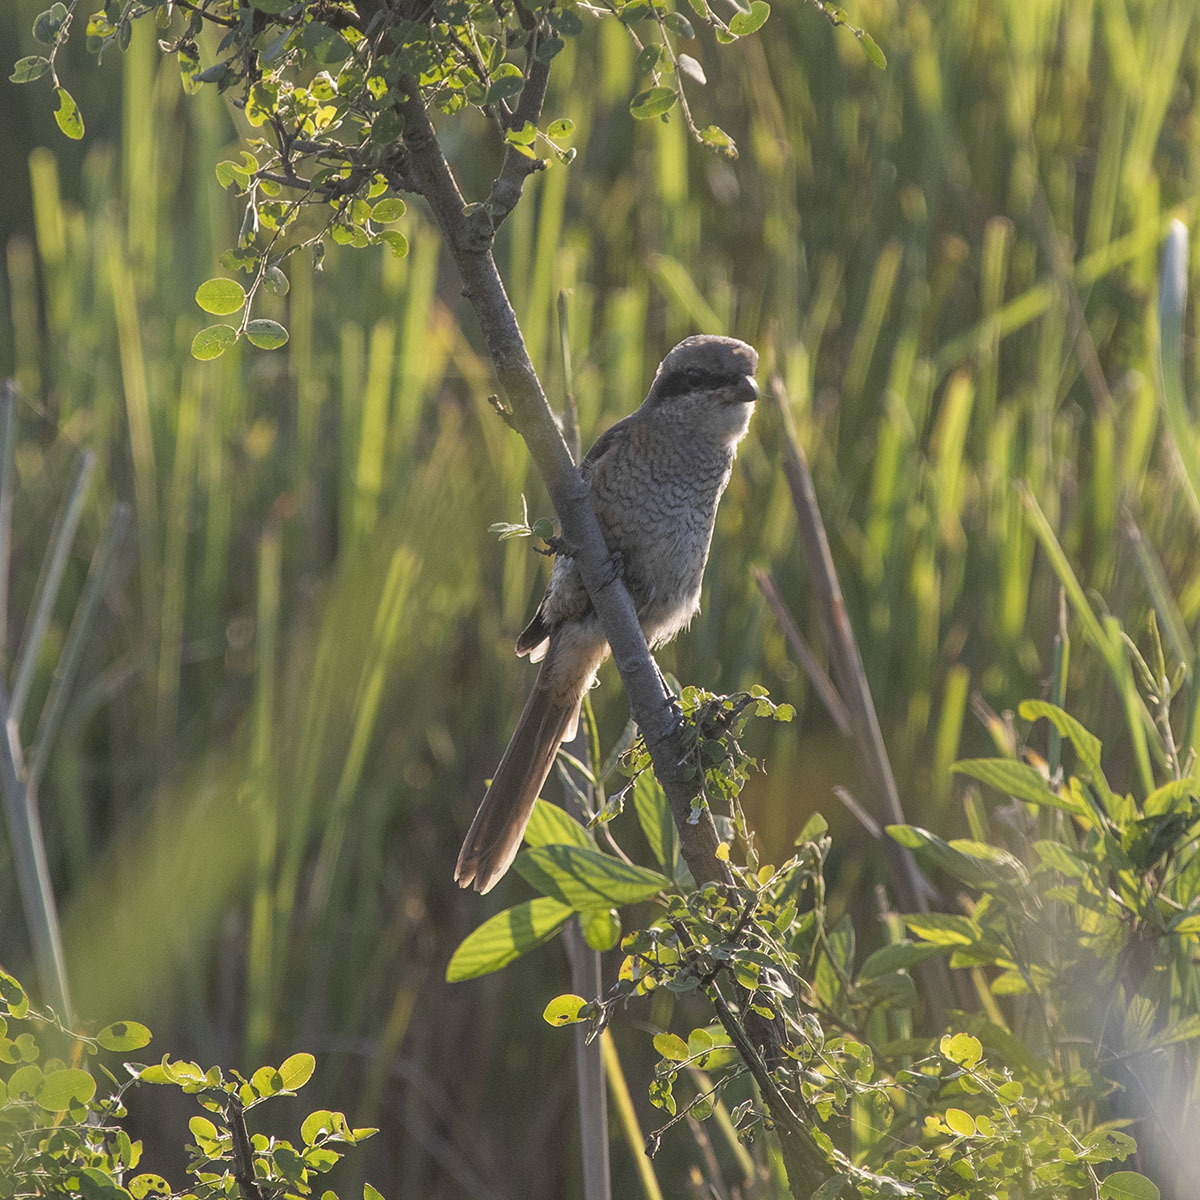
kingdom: Animalia
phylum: Chordata
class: Aves
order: Passeriformes
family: Laniidae
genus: Lanius
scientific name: Lanius cristatus
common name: Brown shrike
